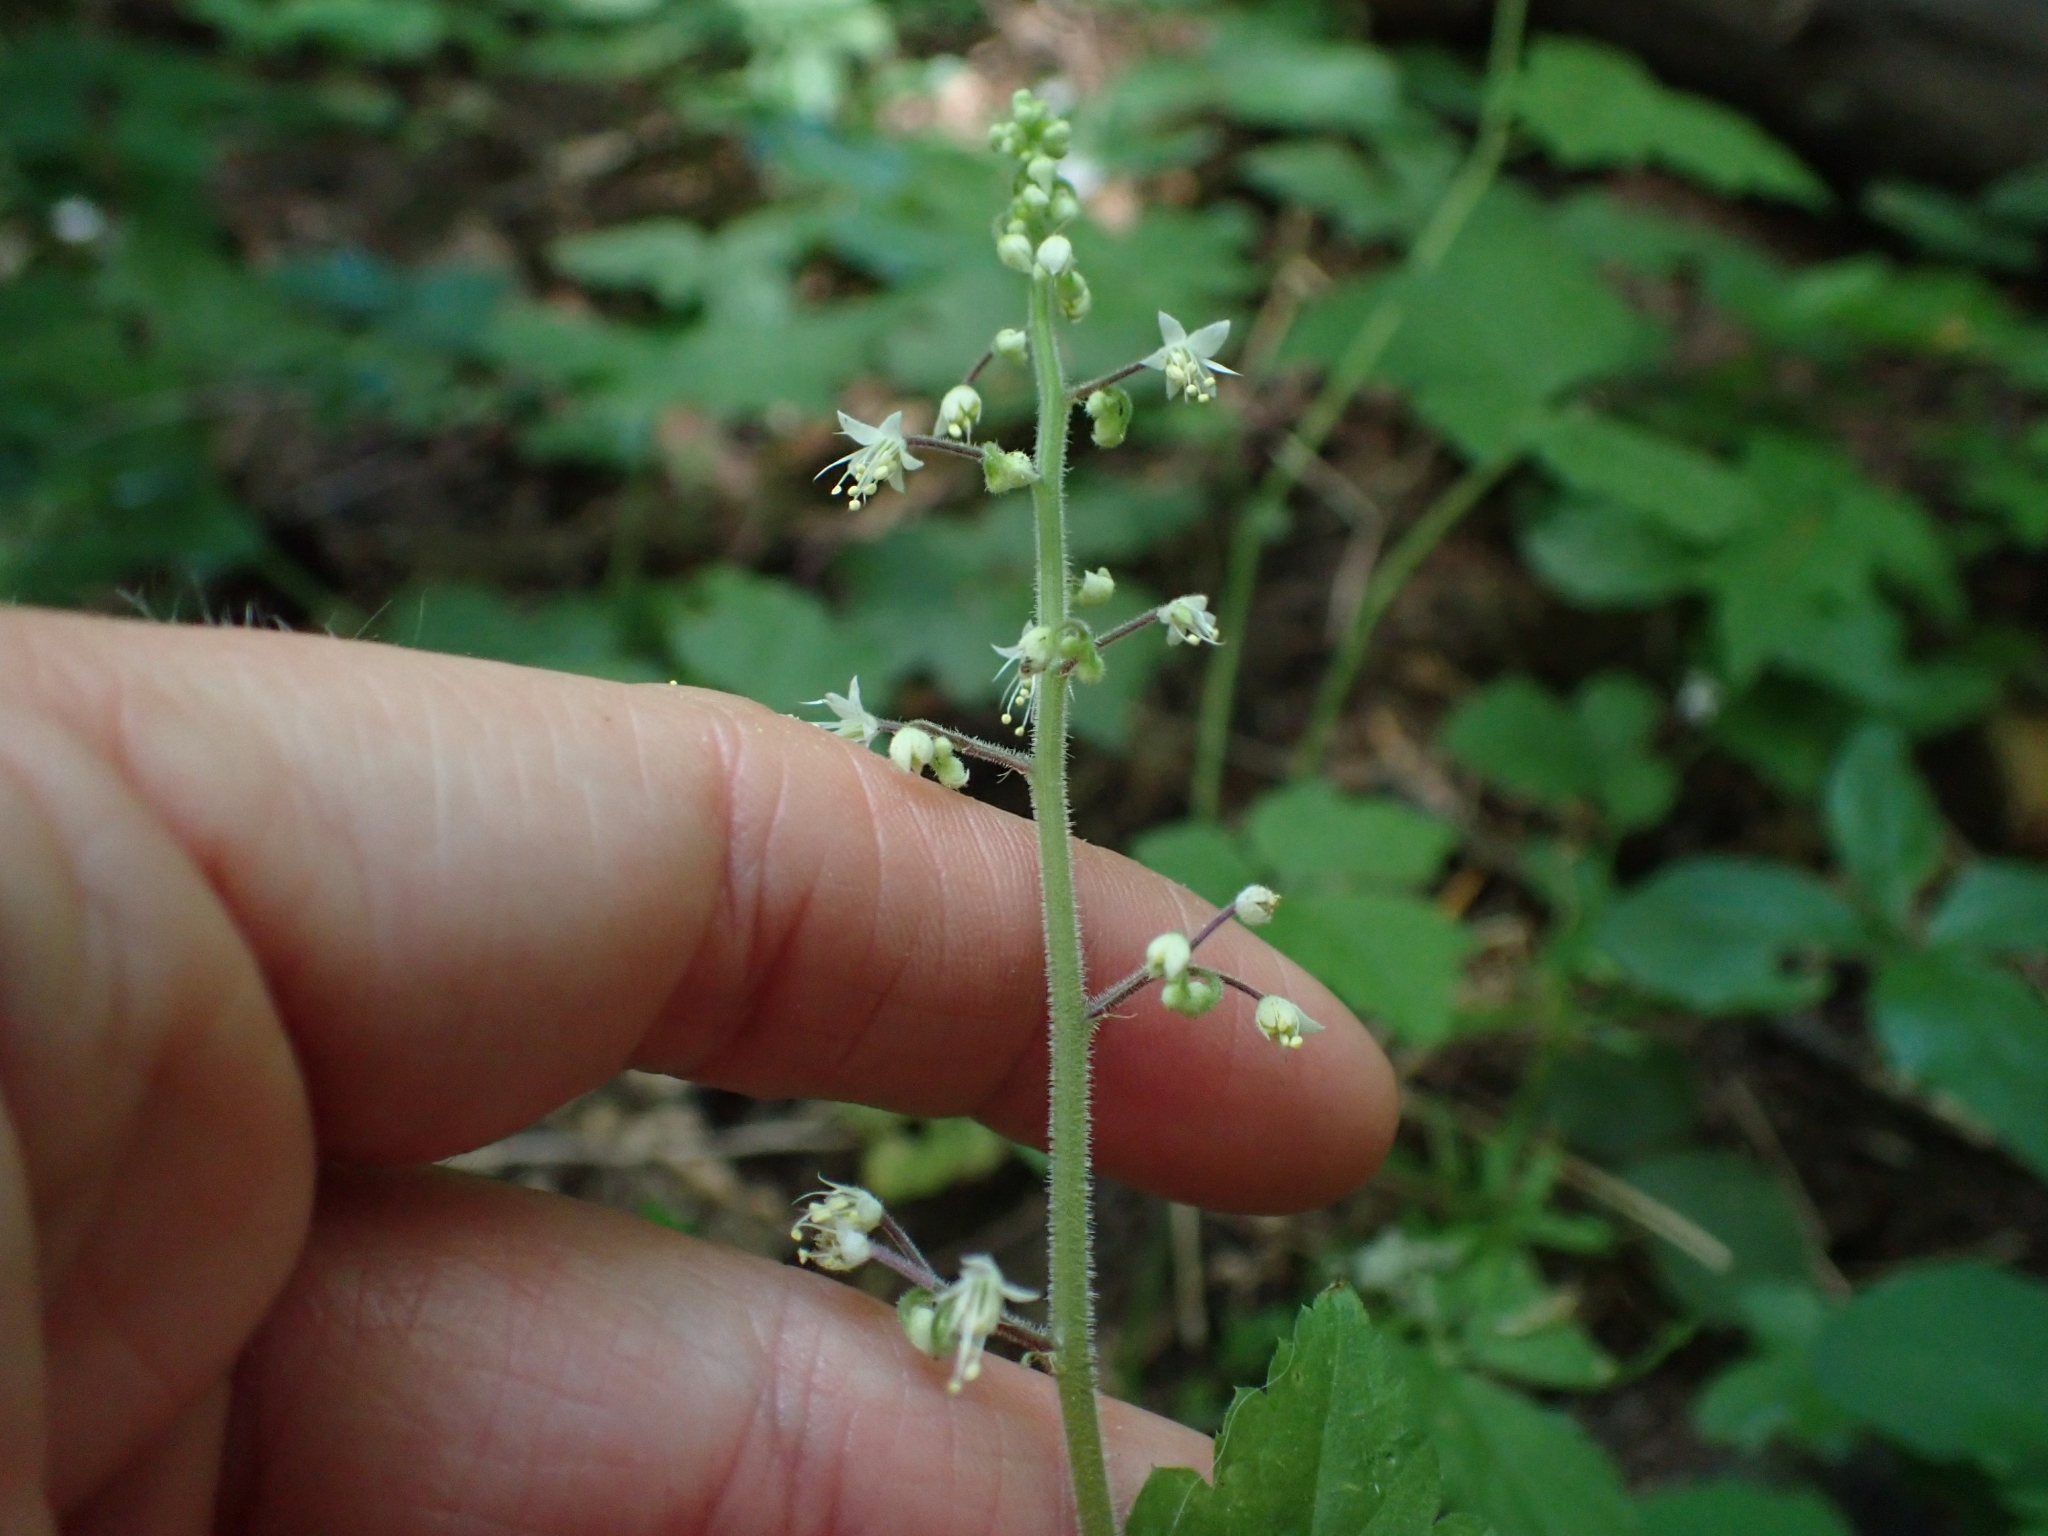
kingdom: Plantae
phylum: Tracheophyta
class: Magnoliopsida
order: Saxifragales
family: Saxifragaceae
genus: Tiarella
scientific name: Tiarella trifoliata
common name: Sugar-scoop
